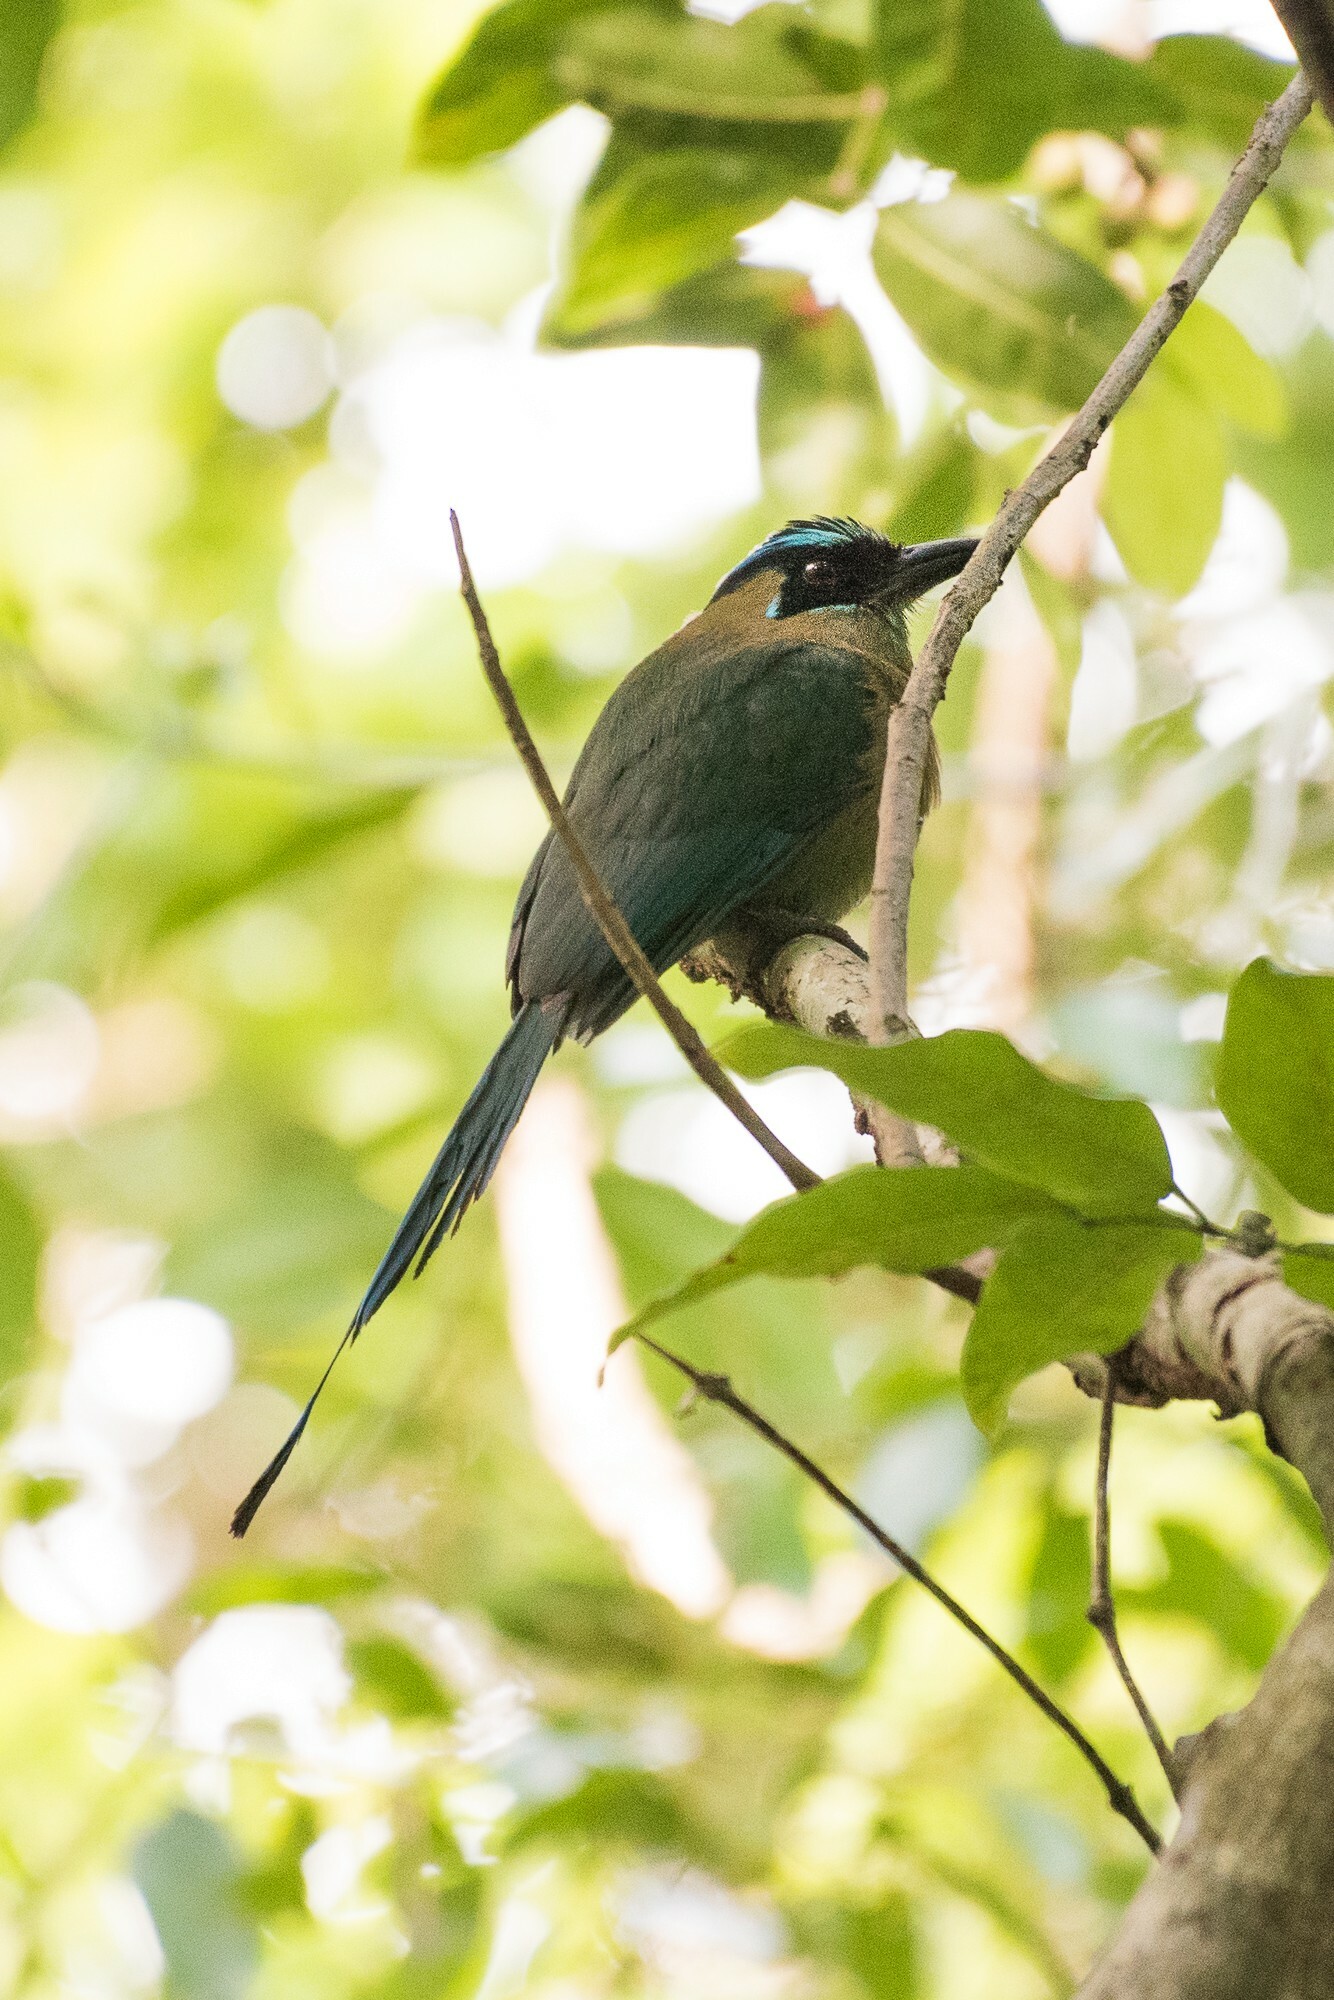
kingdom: Animalia
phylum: Chordata
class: Aves
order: Coraciiformes
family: Momotidae
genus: Momotus
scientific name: Momotus lessonii
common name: Lesson's motmot
